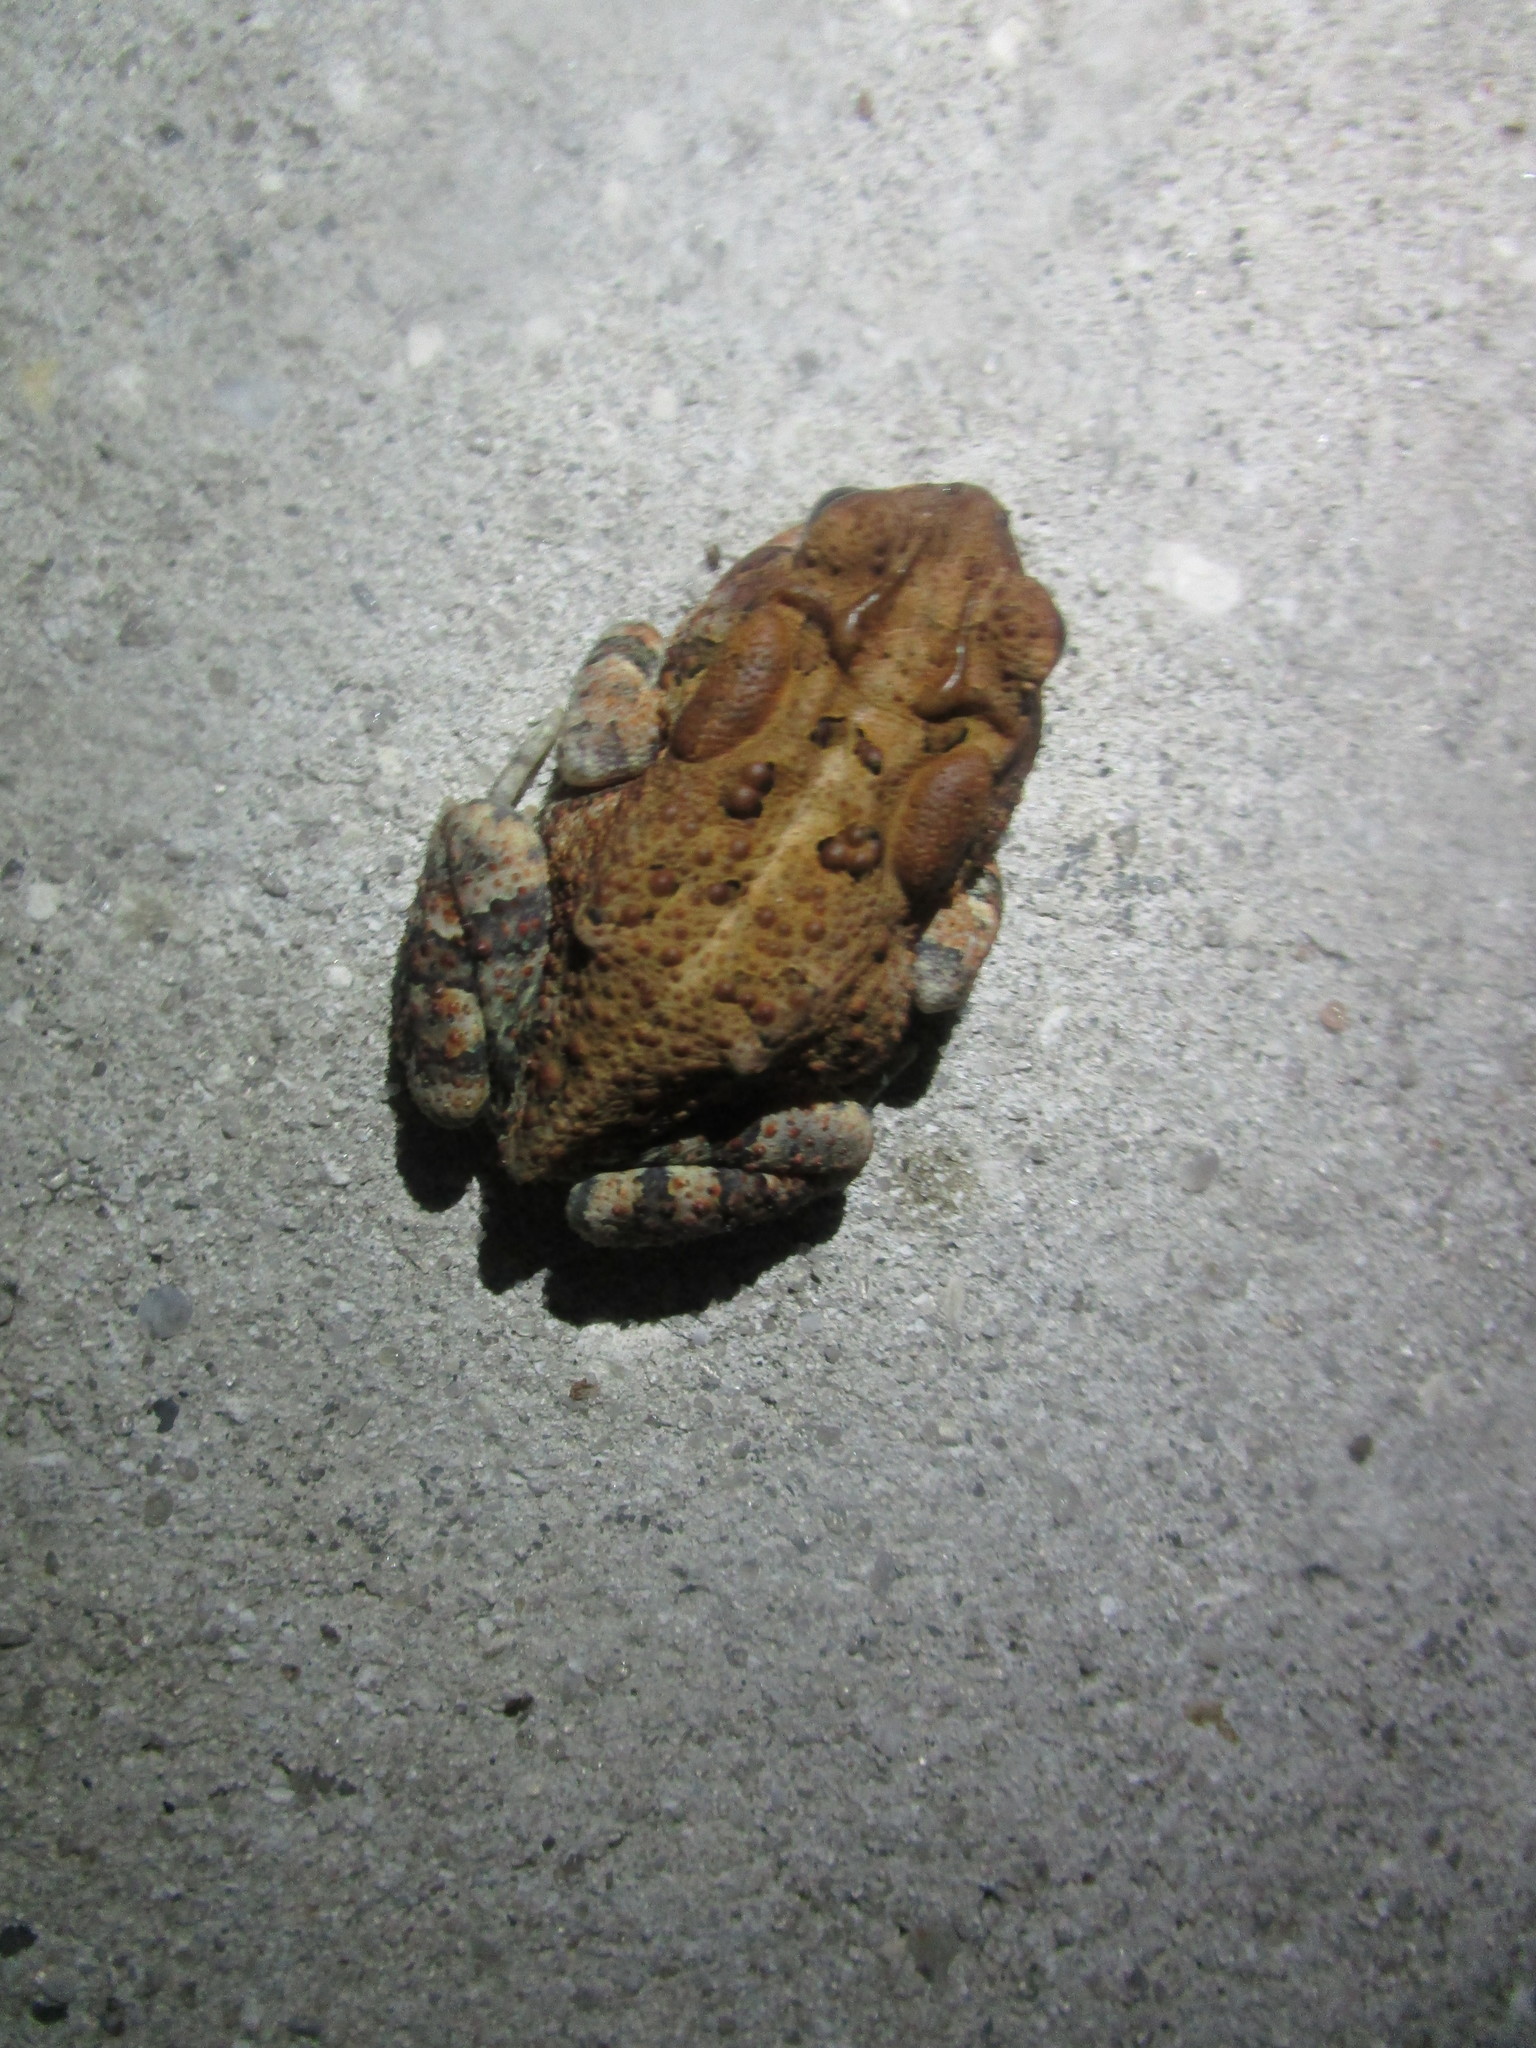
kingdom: Animalia
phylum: Chordata
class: Amphibia
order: Anura
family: Bufonidae
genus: Anaxyrus
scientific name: Anaxyrus terrestris
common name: Southern toad
